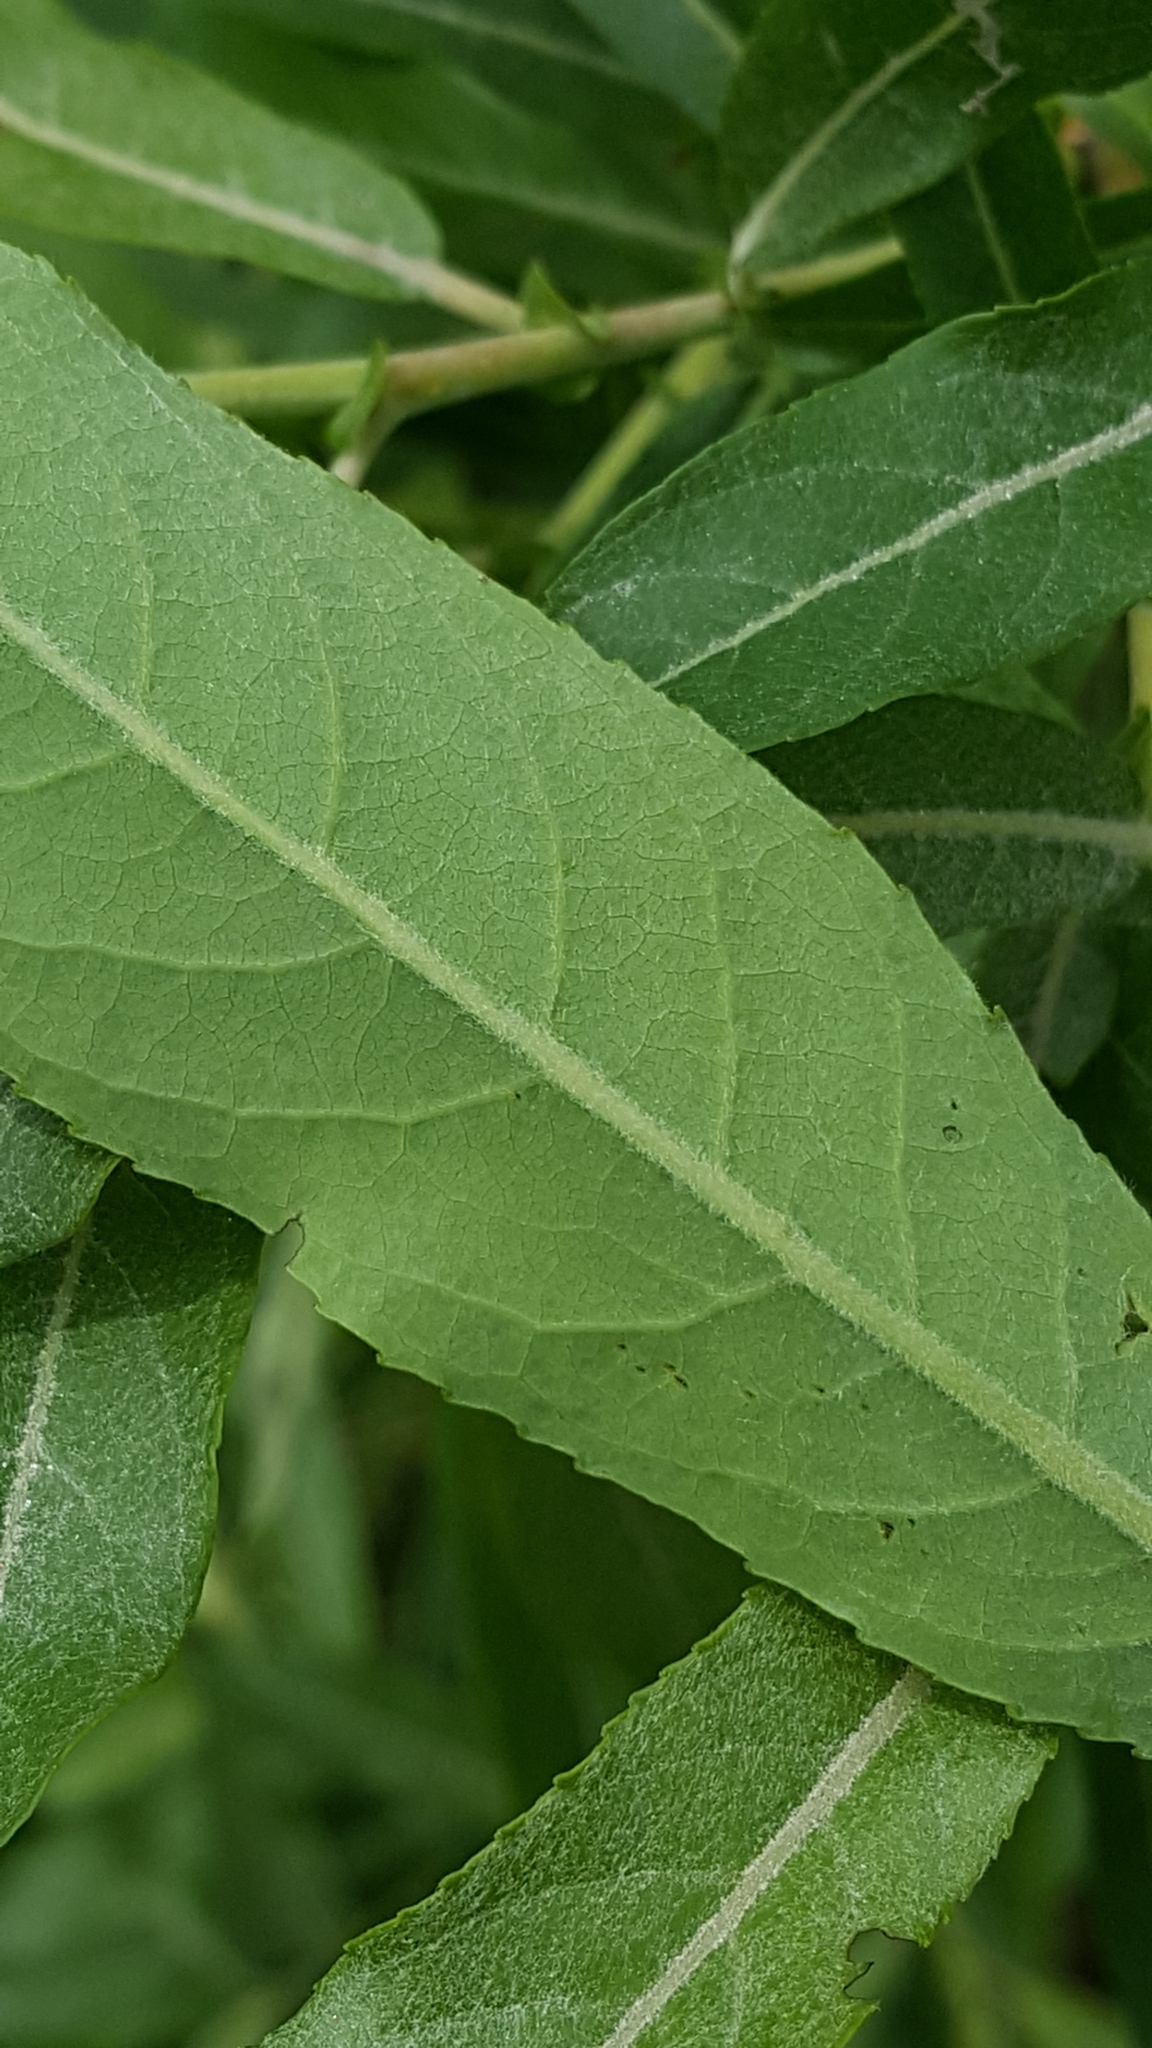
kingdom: Plantae
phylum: Tracheophyta
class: Magnoliopsida
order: Malpighiales
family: Salicaceae
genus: Salix
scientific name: Salix humilis
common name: Prairie willow
